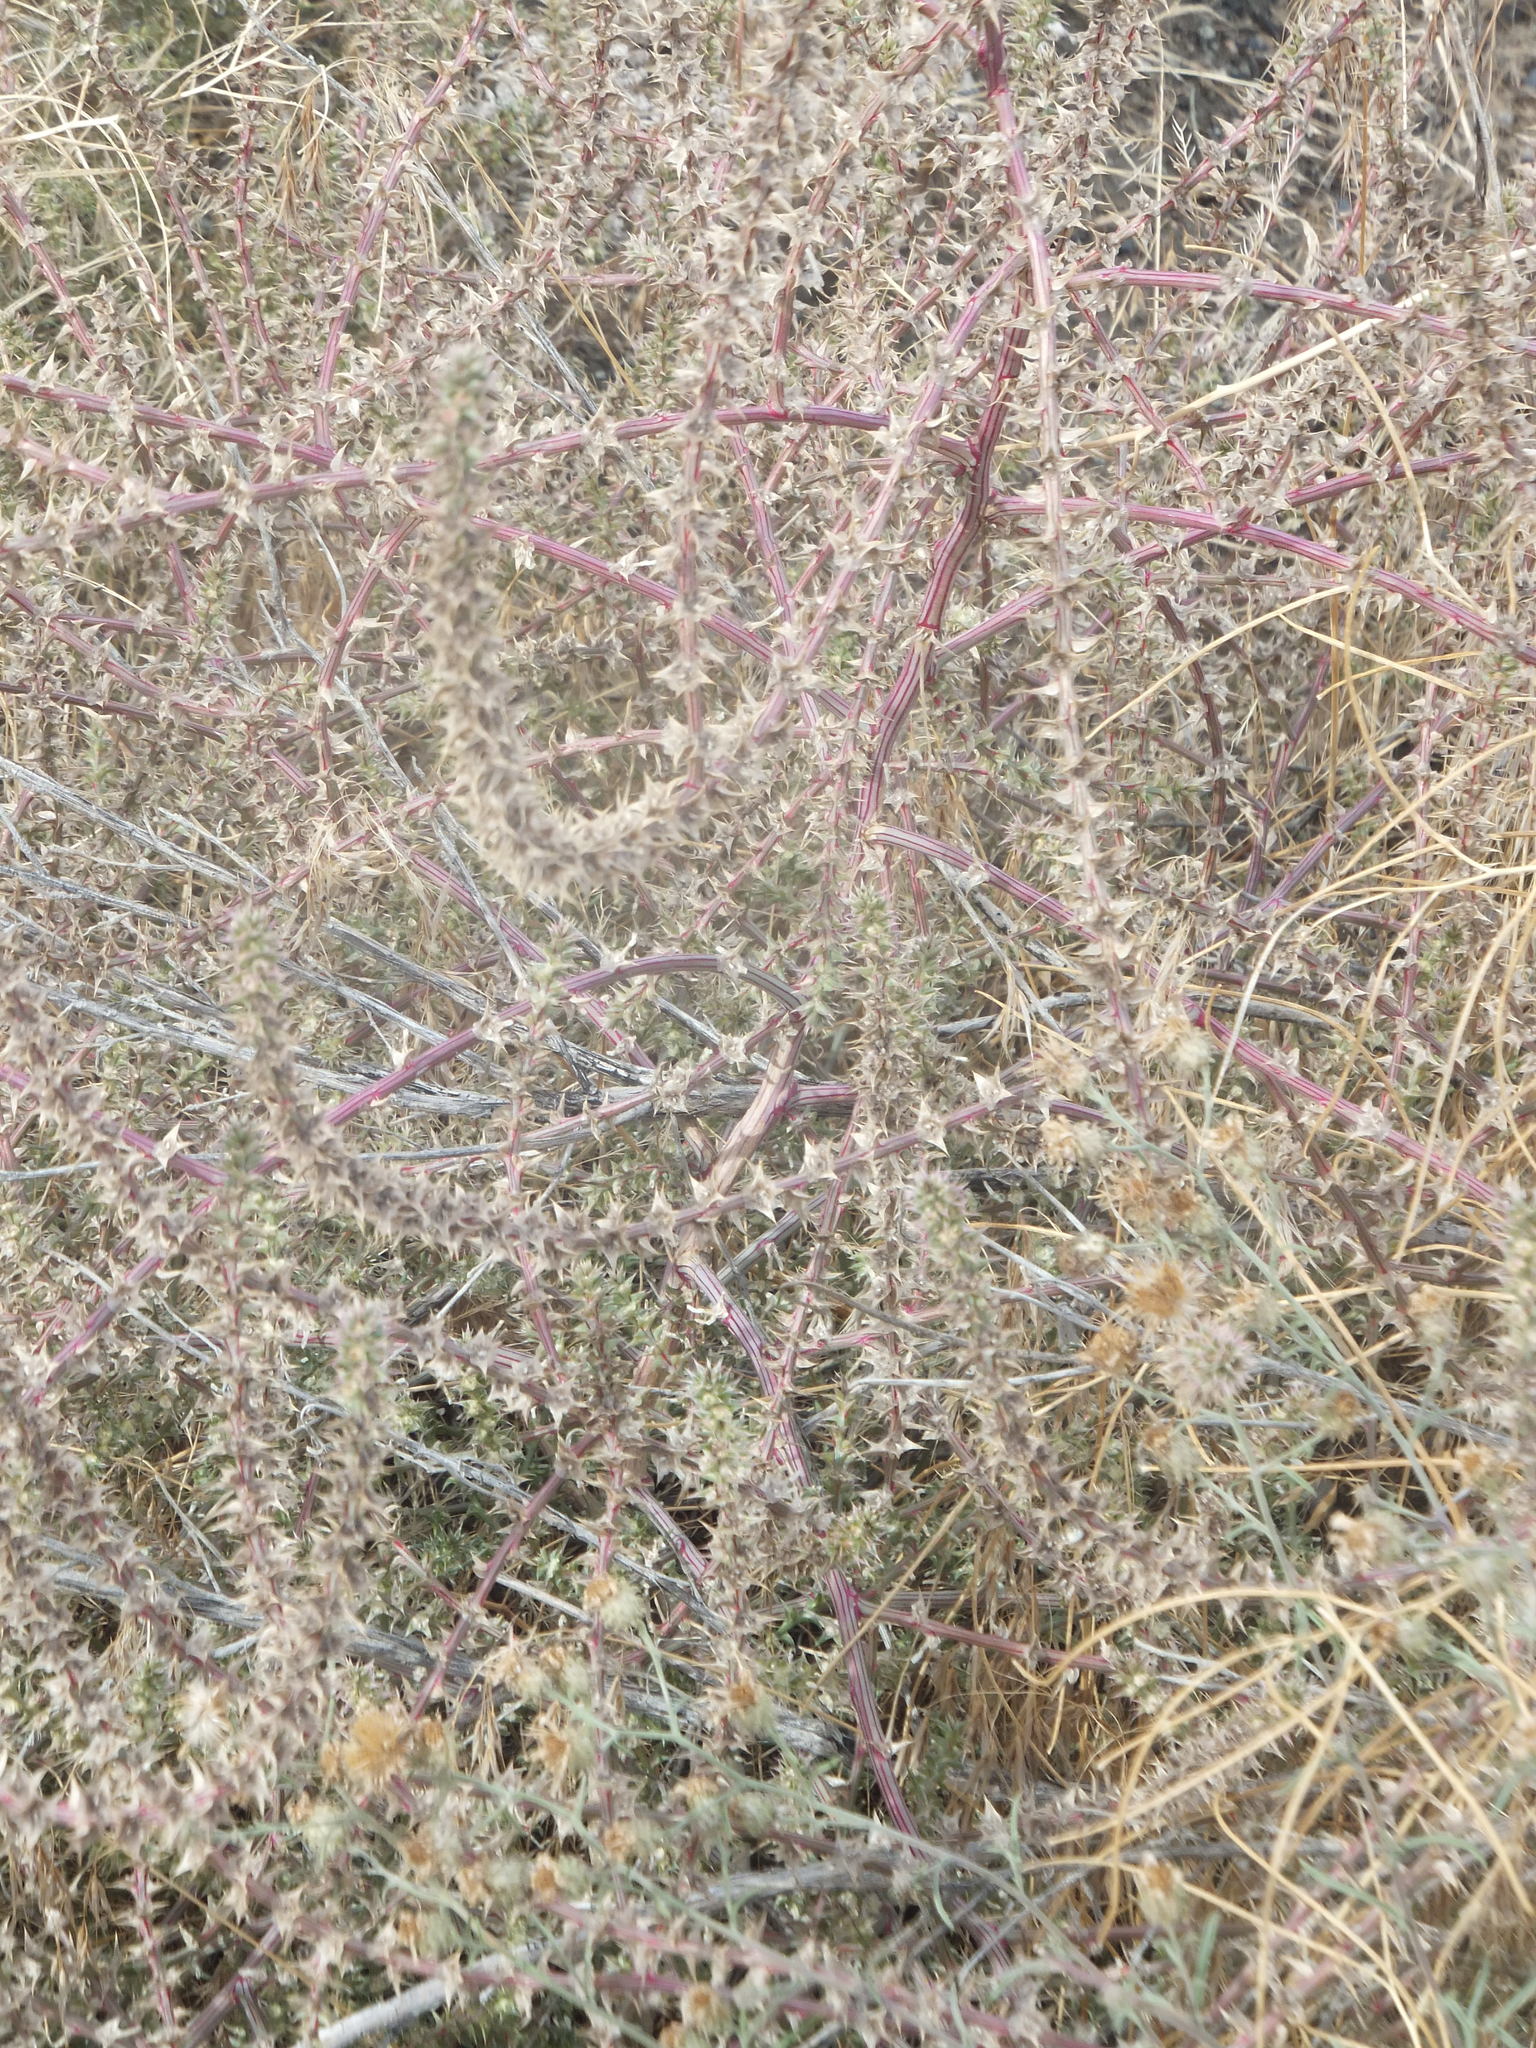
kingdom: Plantae
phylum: Tracheophyta
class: Magnoliopsida
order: Caryophyllales
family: Amaranthaceae
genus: Salsola
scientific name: Salsola tragus
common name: Prickly russian thistle
